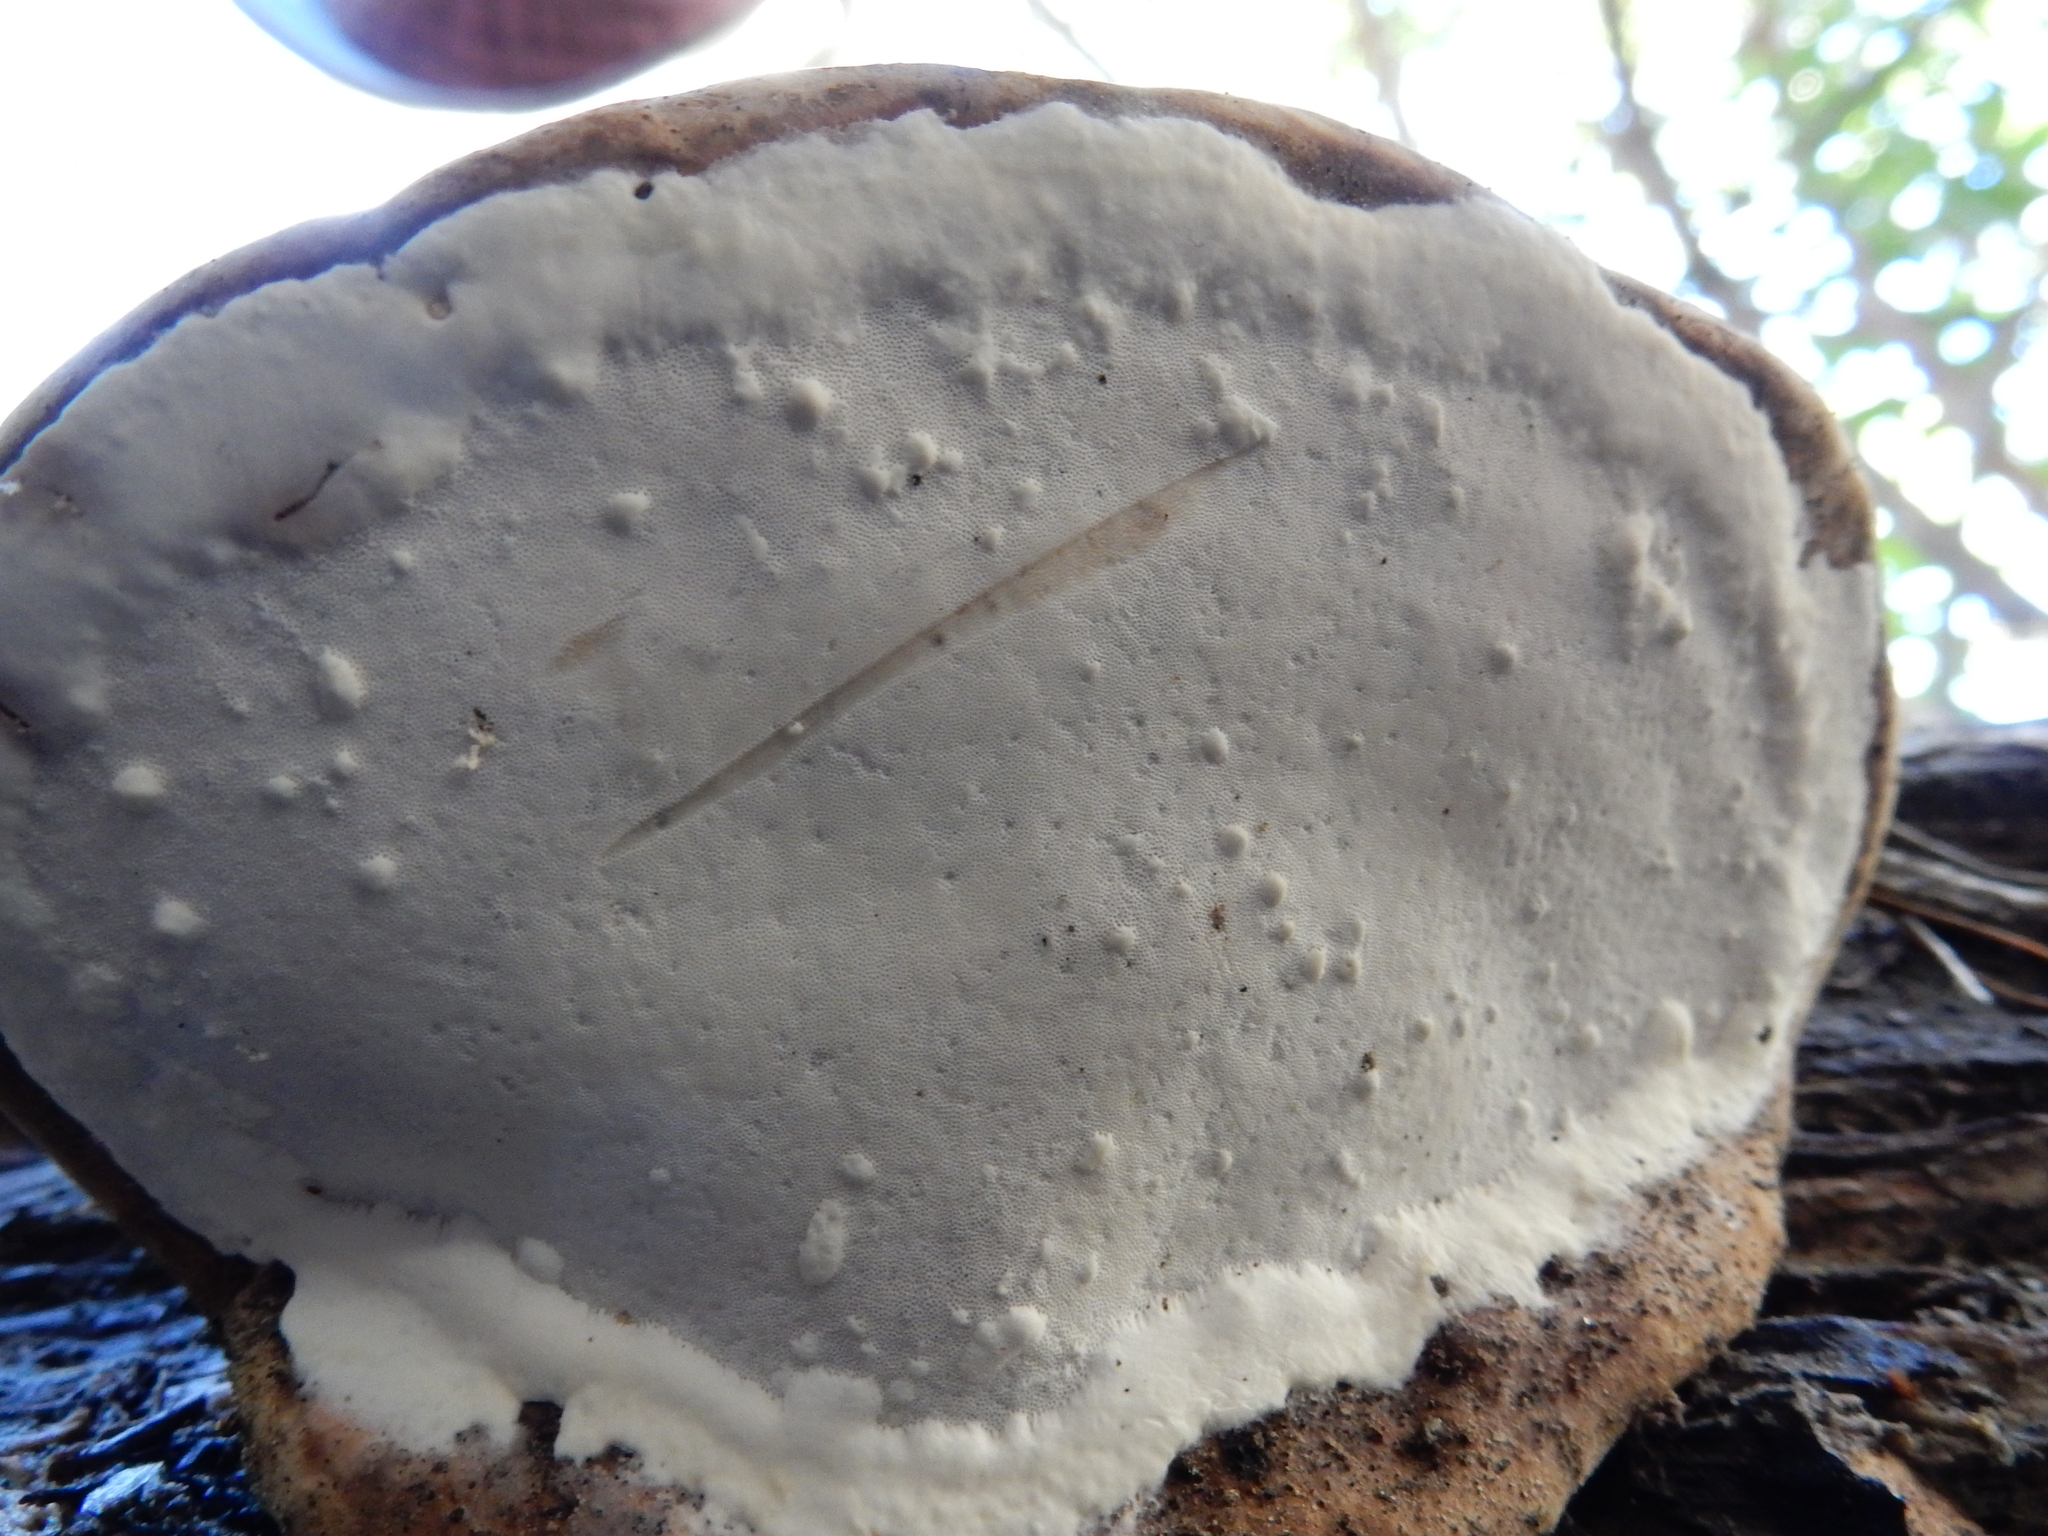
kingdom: Fungi
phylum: Basidiomycota
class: Agaricomycetes
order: Polyporales
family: Fomitopsidaceae
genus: Pilatoporus
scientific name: Pilatoporus hemitephrus
